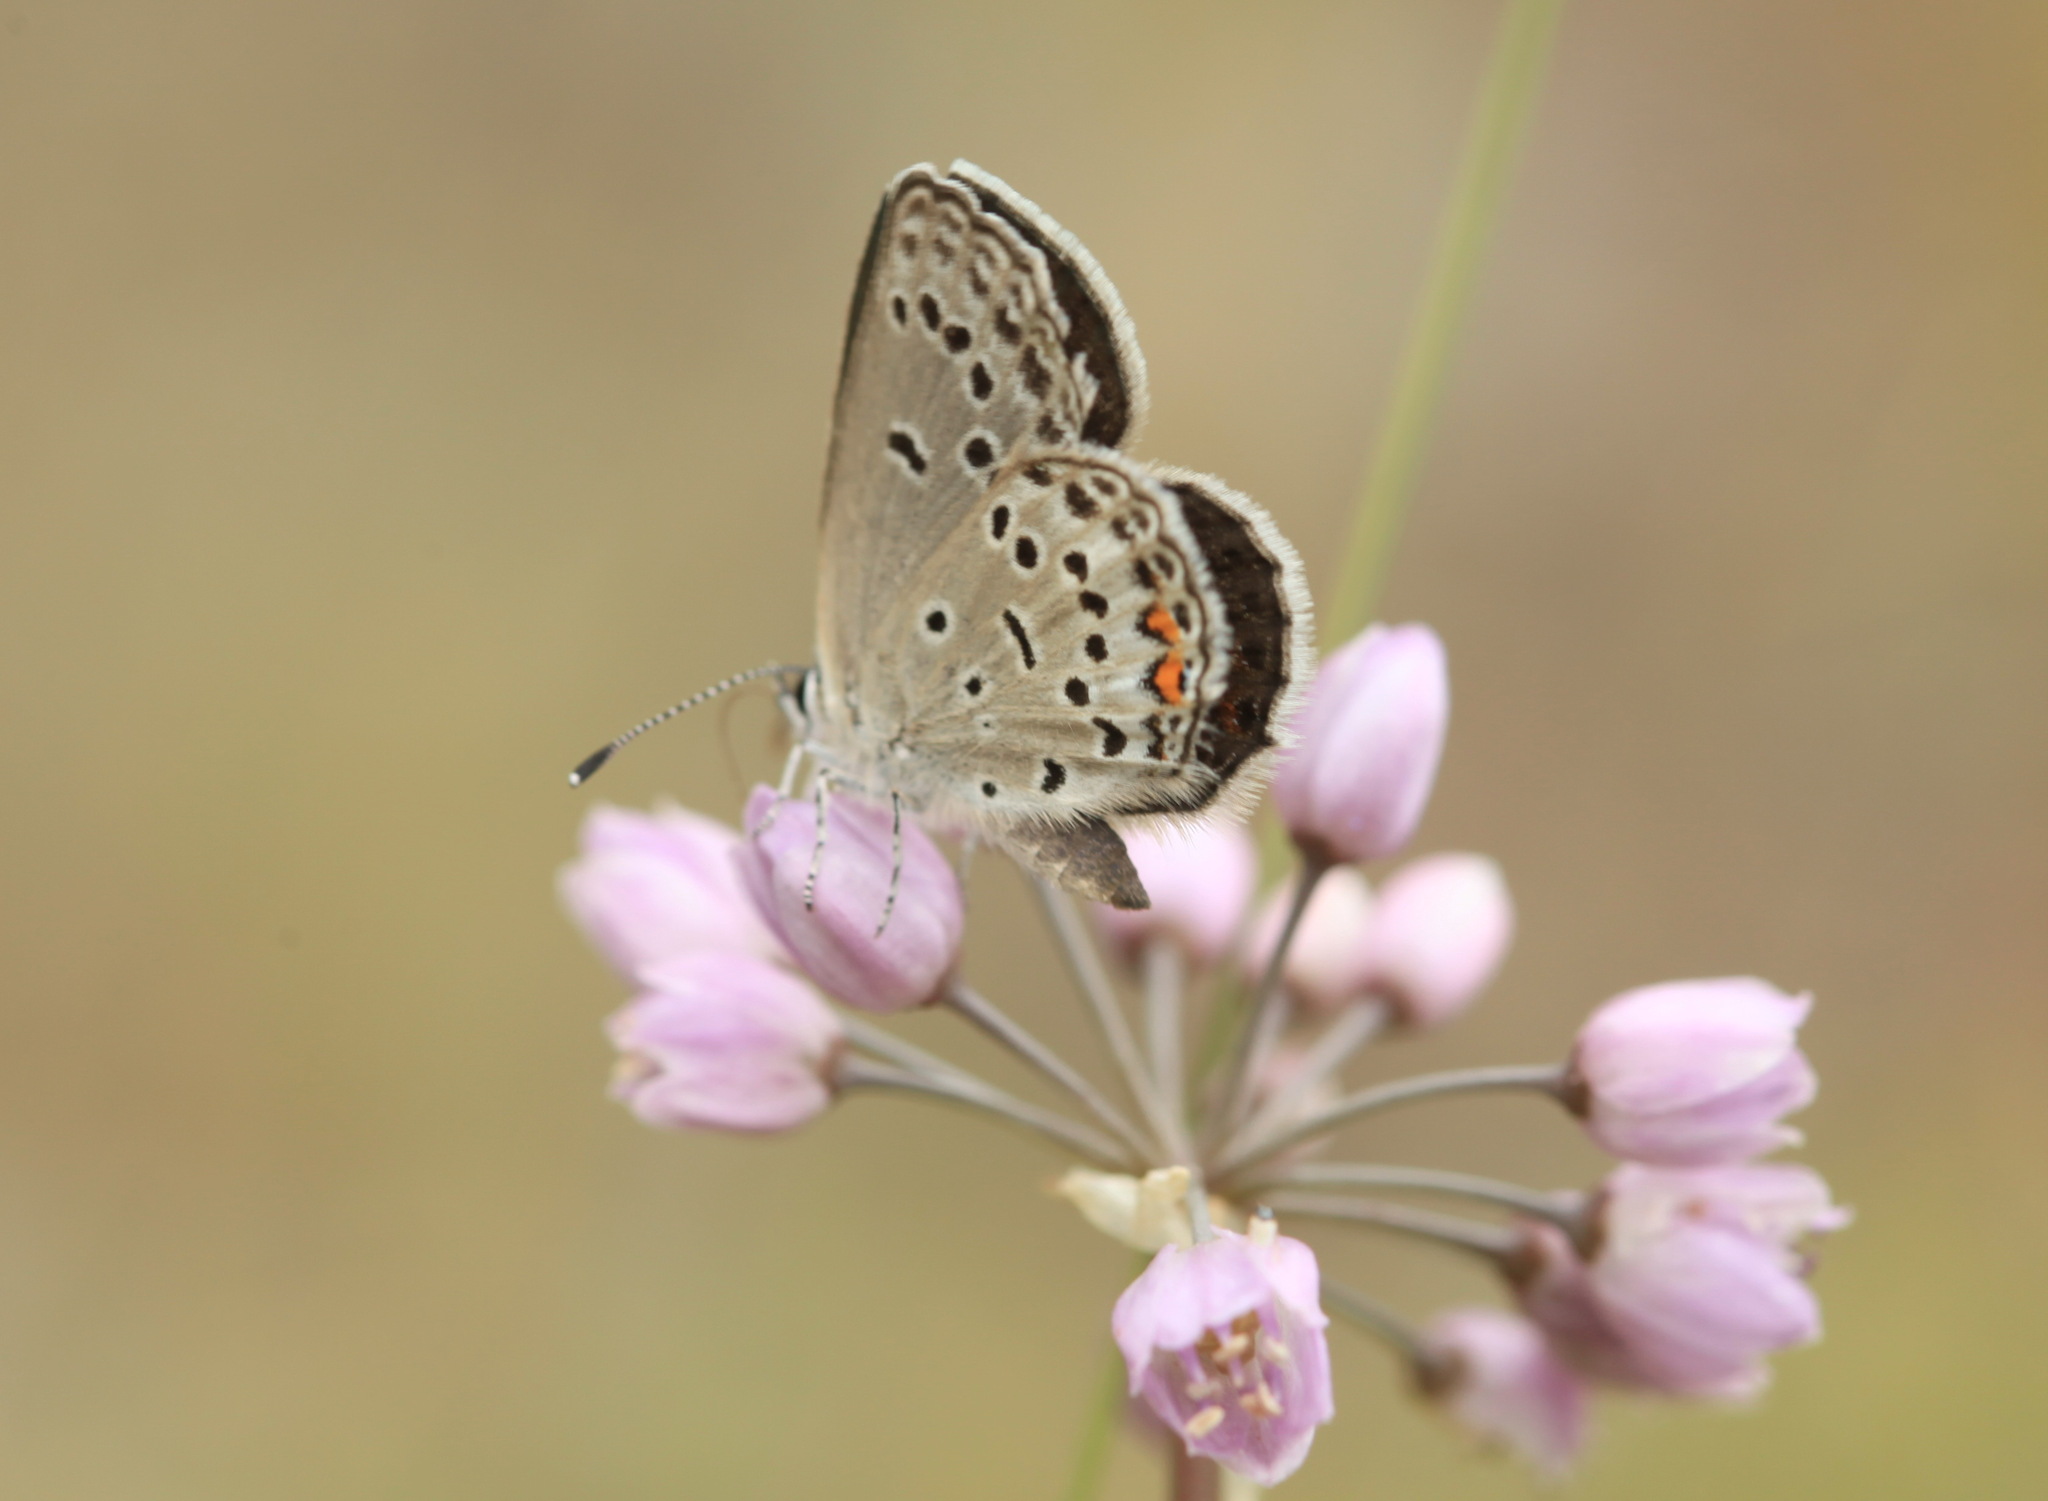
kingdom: Animalia
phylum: Arthropoda
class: Insecta
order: Lepidoptera
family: Lycaenidae
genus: Tongeia
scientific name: Tongeia fischeri
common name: Fischer's blue
